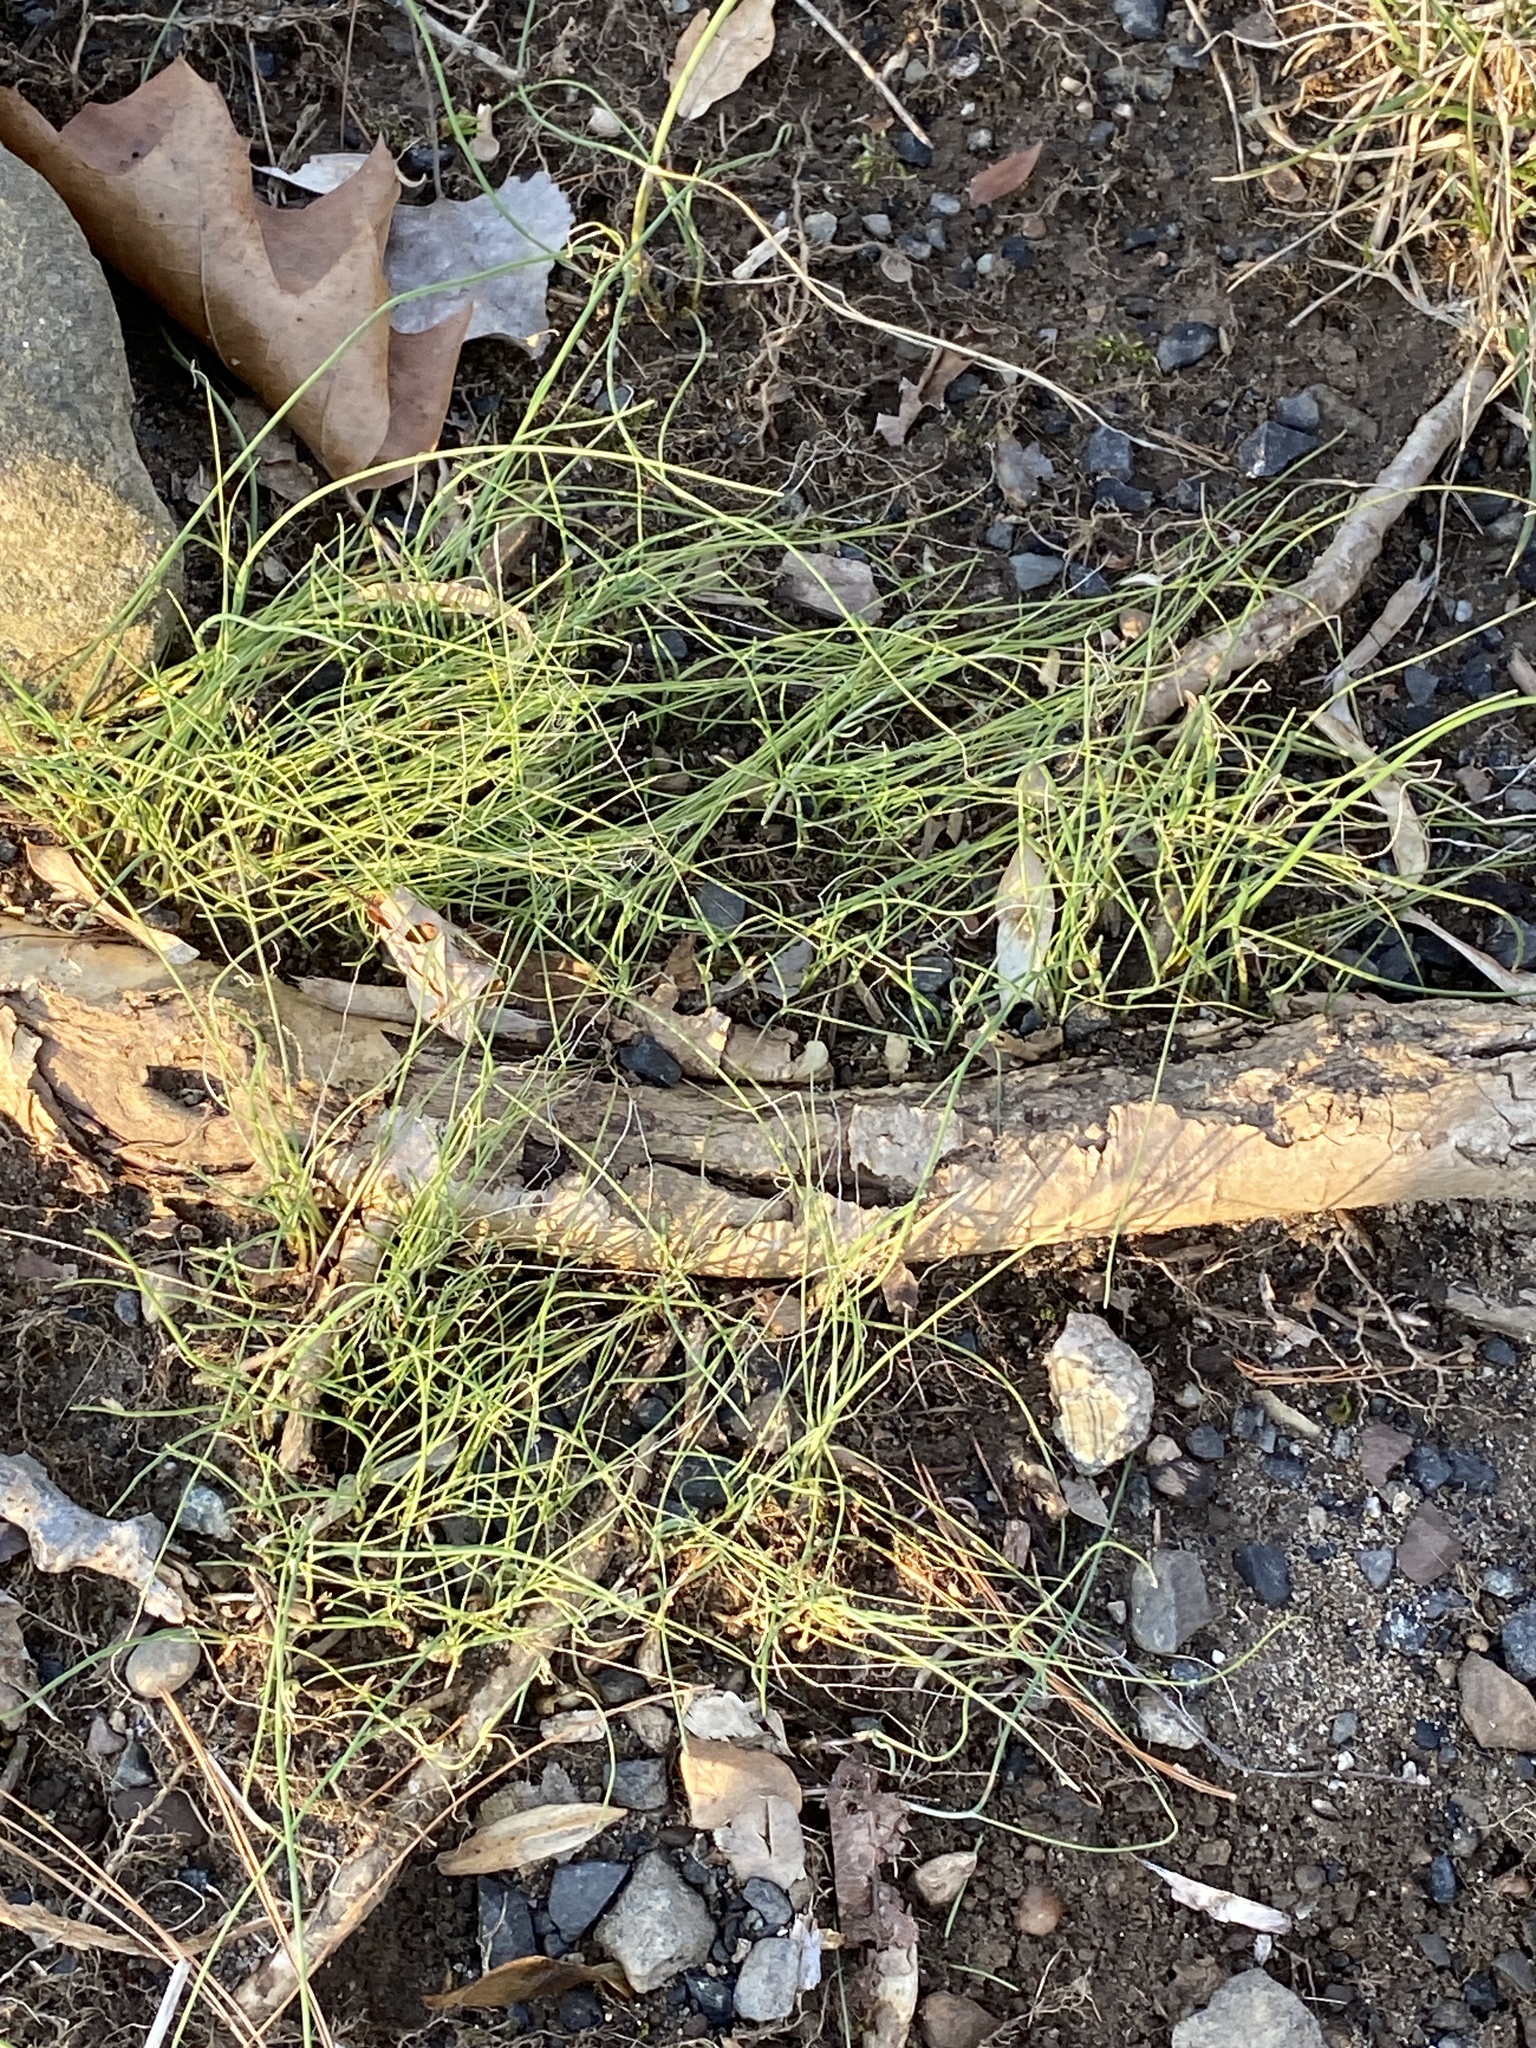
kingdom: Plantae
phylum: Tracheophyta
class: Liliopsida
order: Asparagales
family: Amaryllidaceae
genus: Allium
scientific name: Allium vineale
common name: Crow garlic
